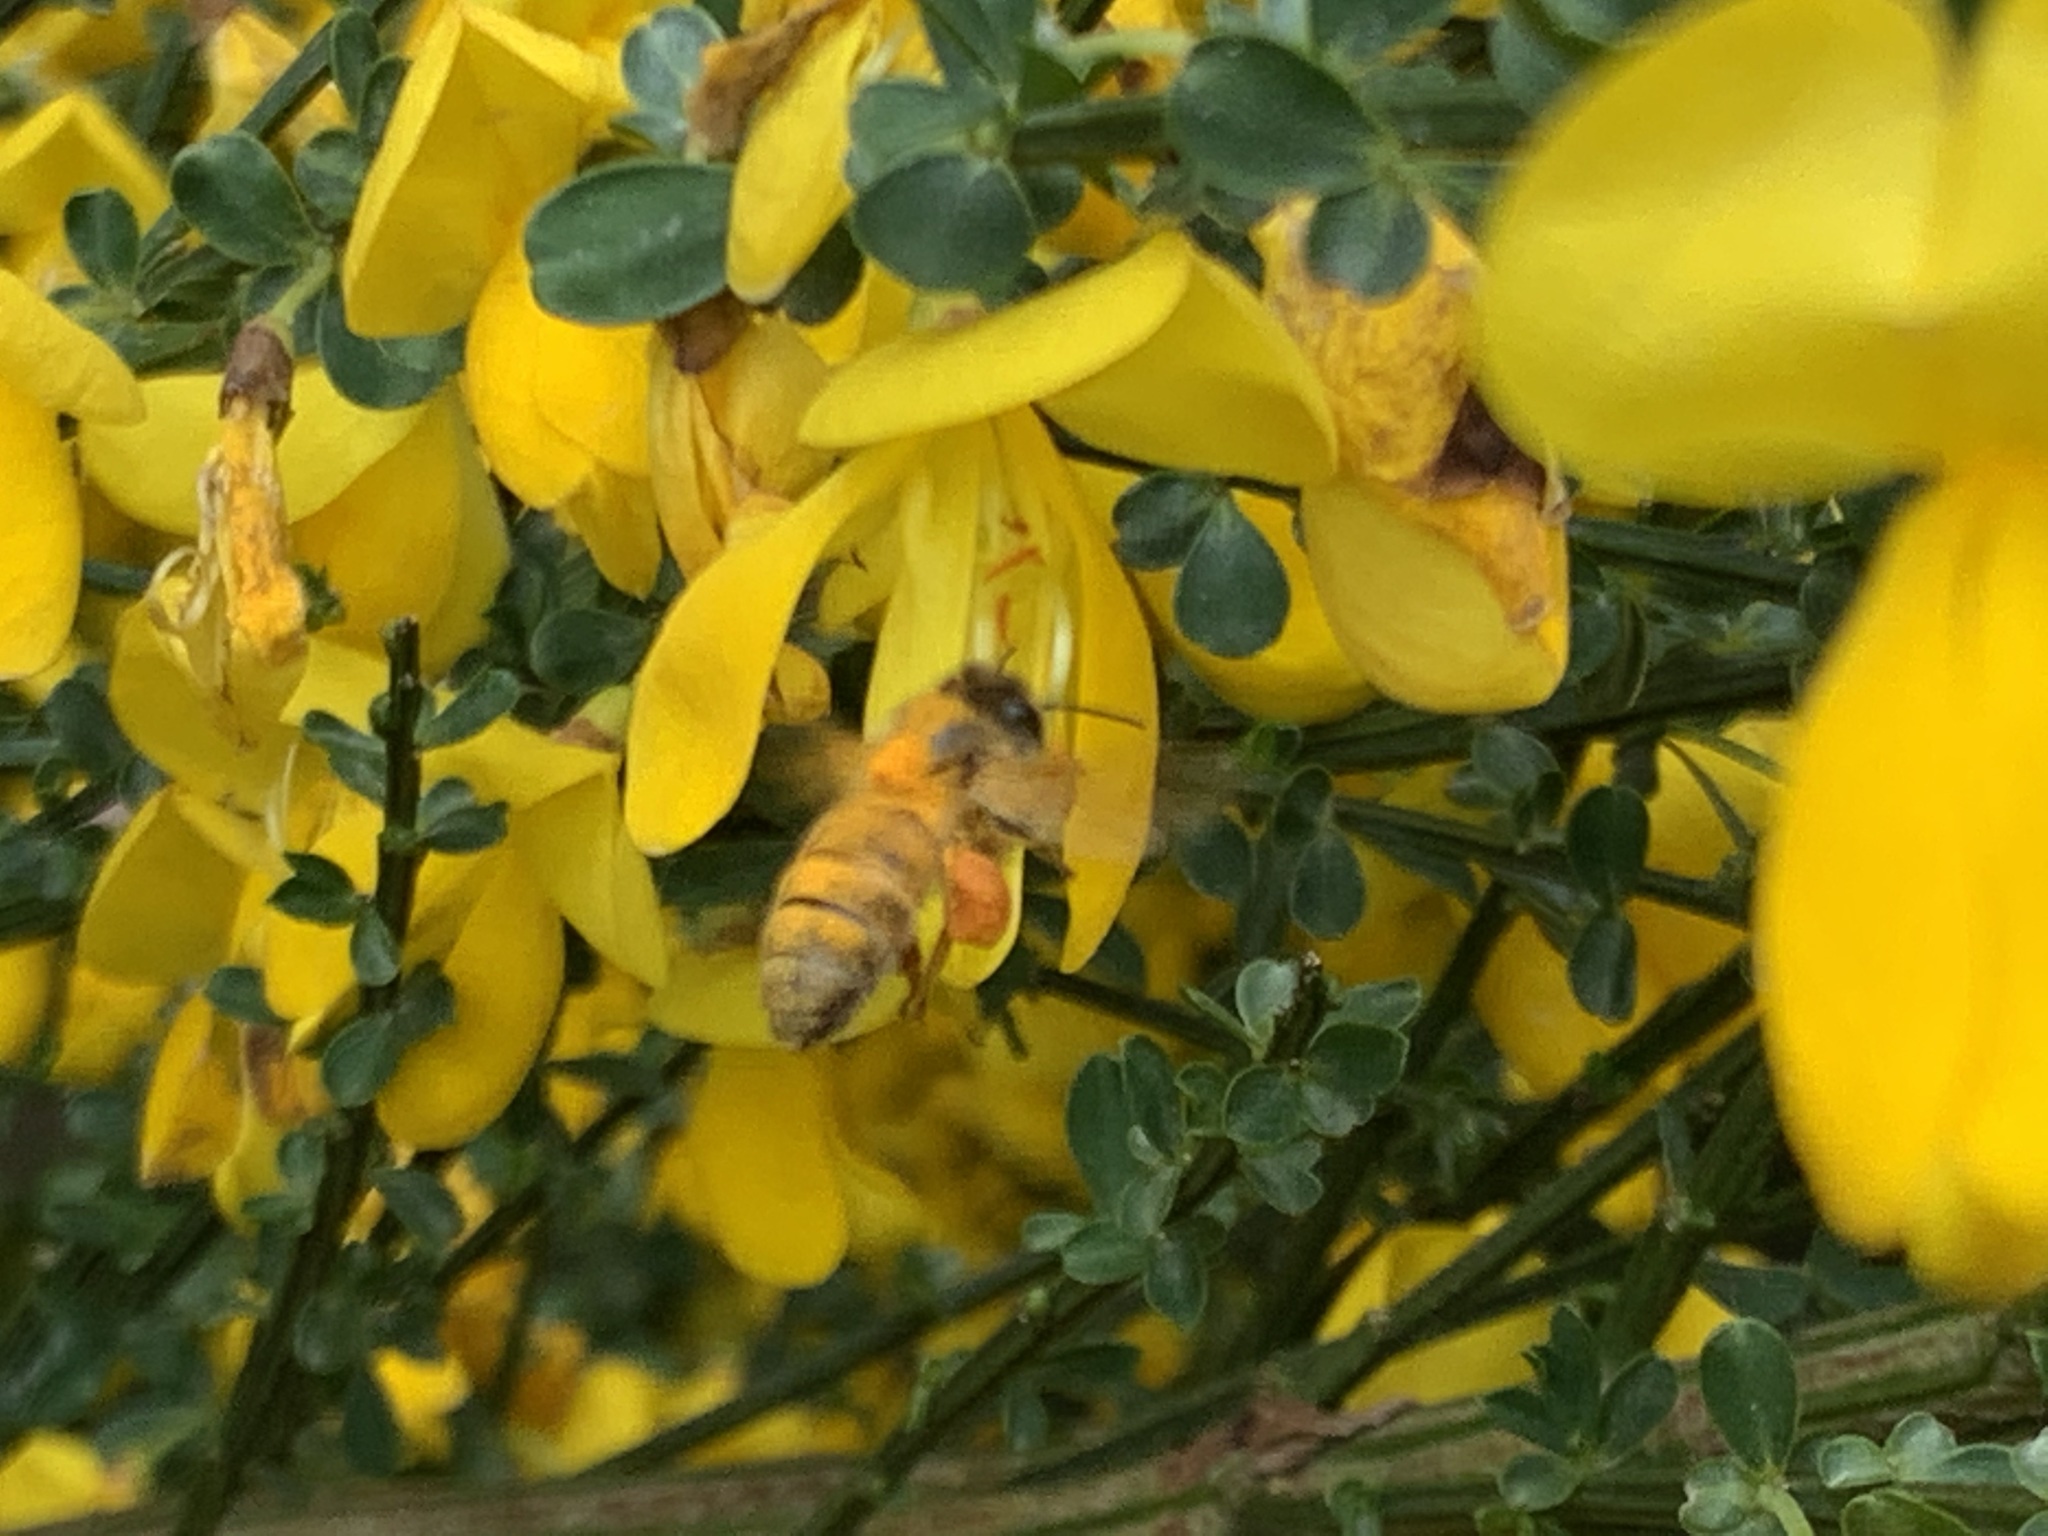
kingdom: Animalia
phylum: Arthropoda
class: Insecta
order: Hymenoptera
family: Apidae
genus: Apis
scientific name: Apis mellifera
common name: Honey bee
